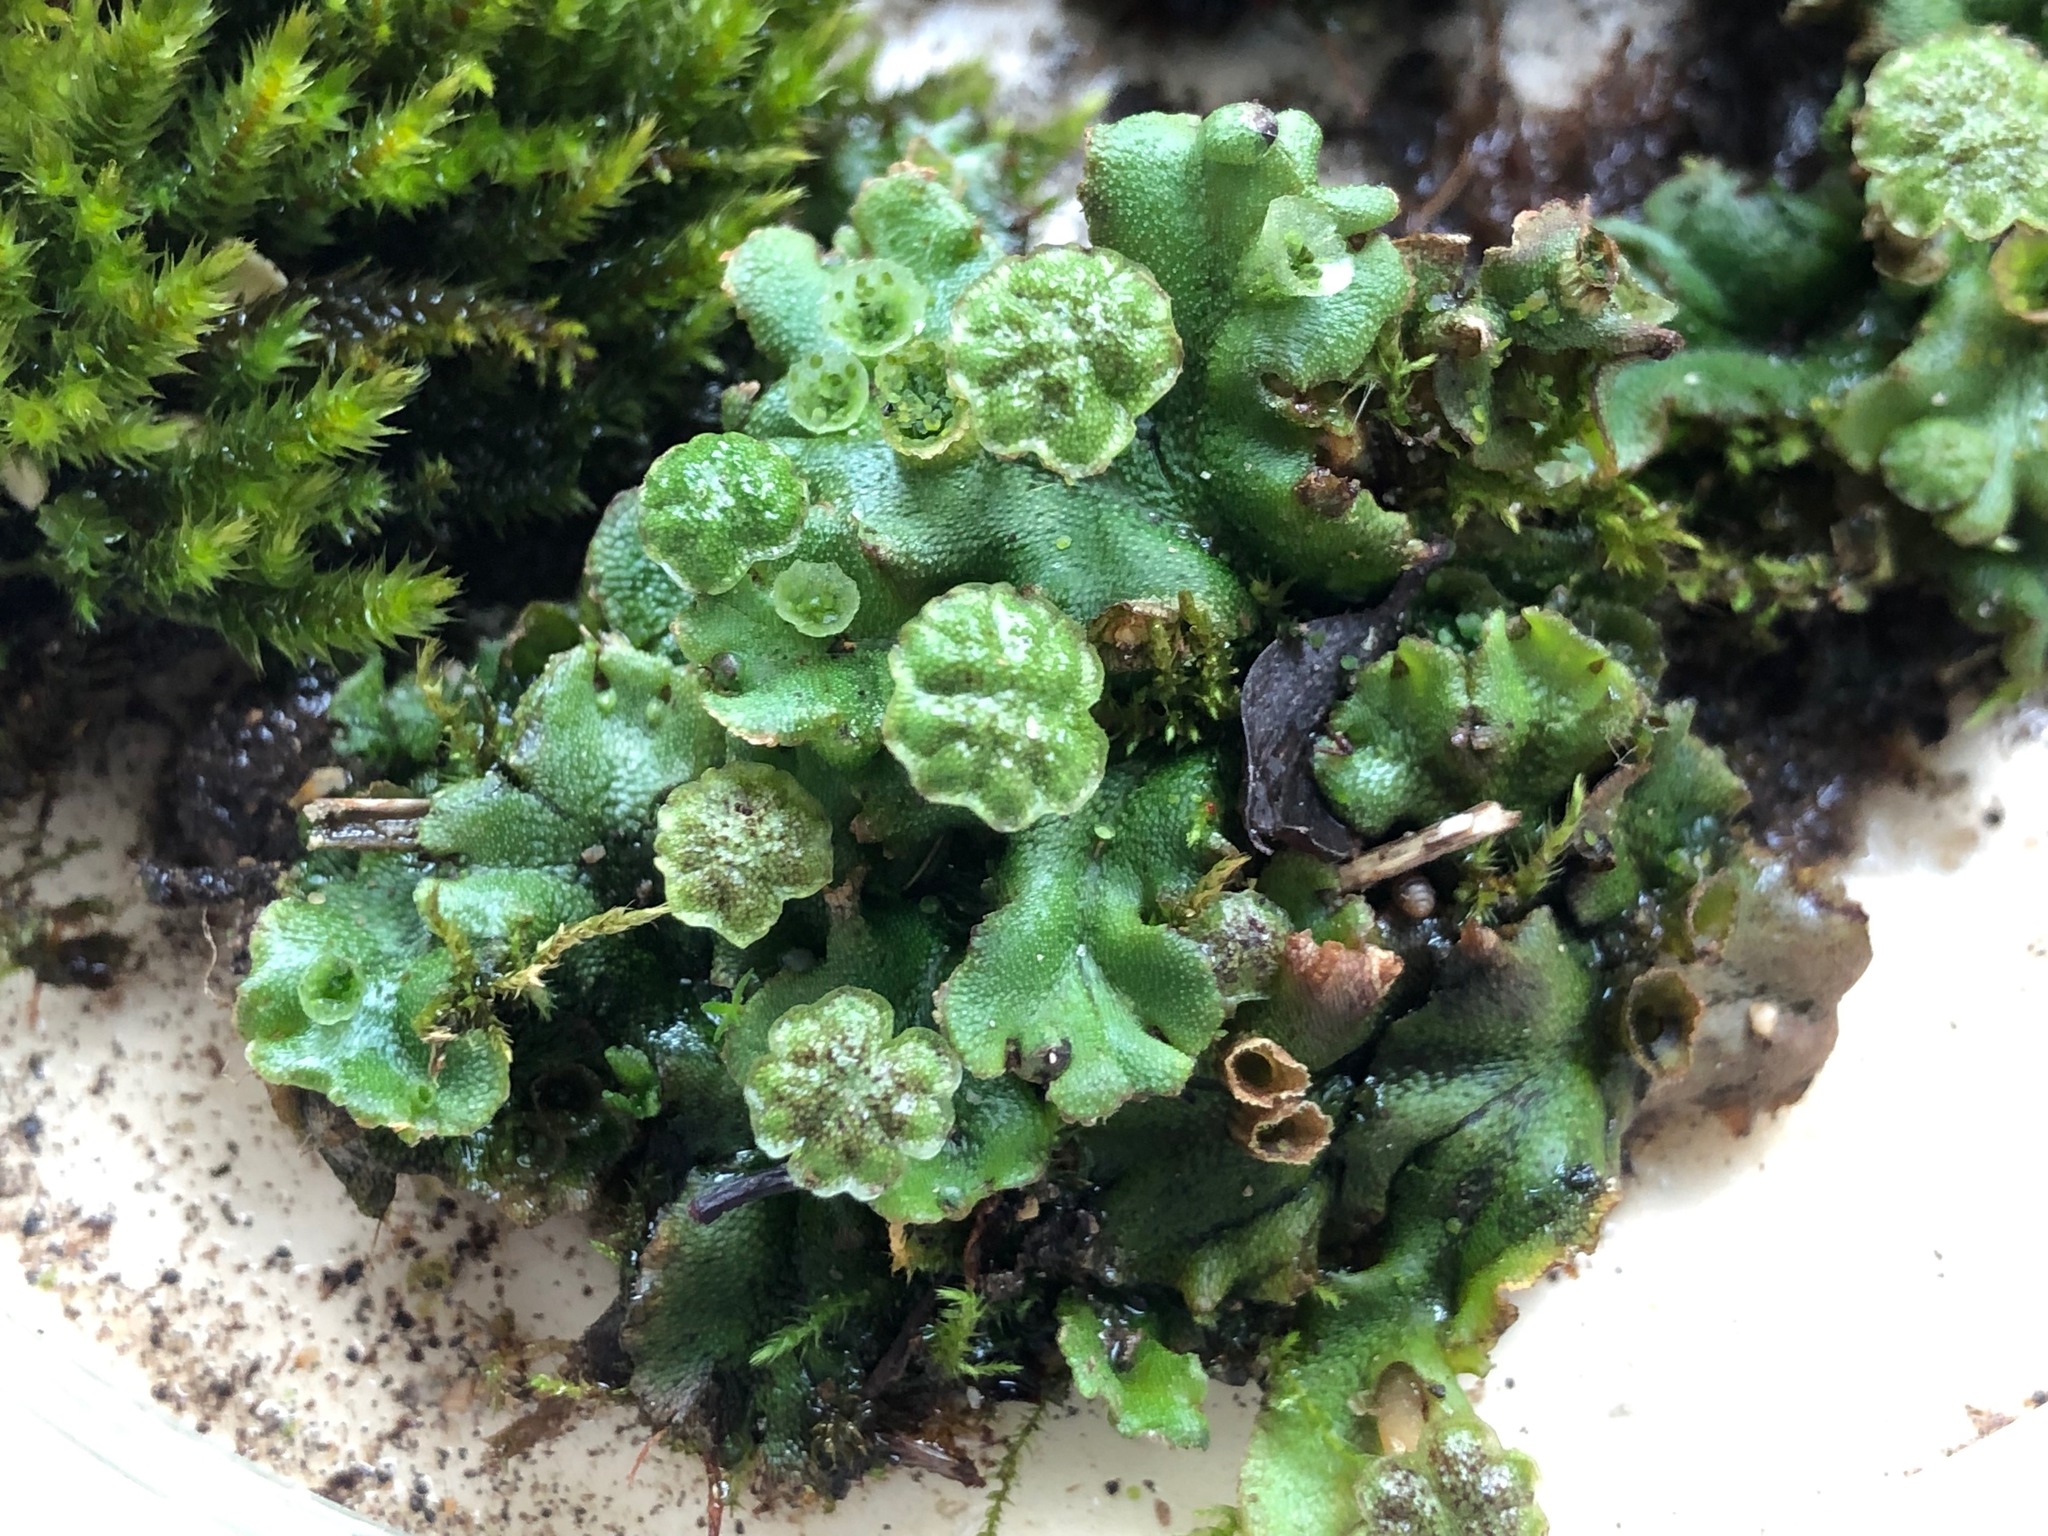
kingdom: Plantae
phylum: Marchantiophyta
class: Marchantiopsida
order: Marchantiales
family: Marchantiaceae
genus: Marchantia
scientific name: Marchantia polymorpha
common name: Common liverwort
